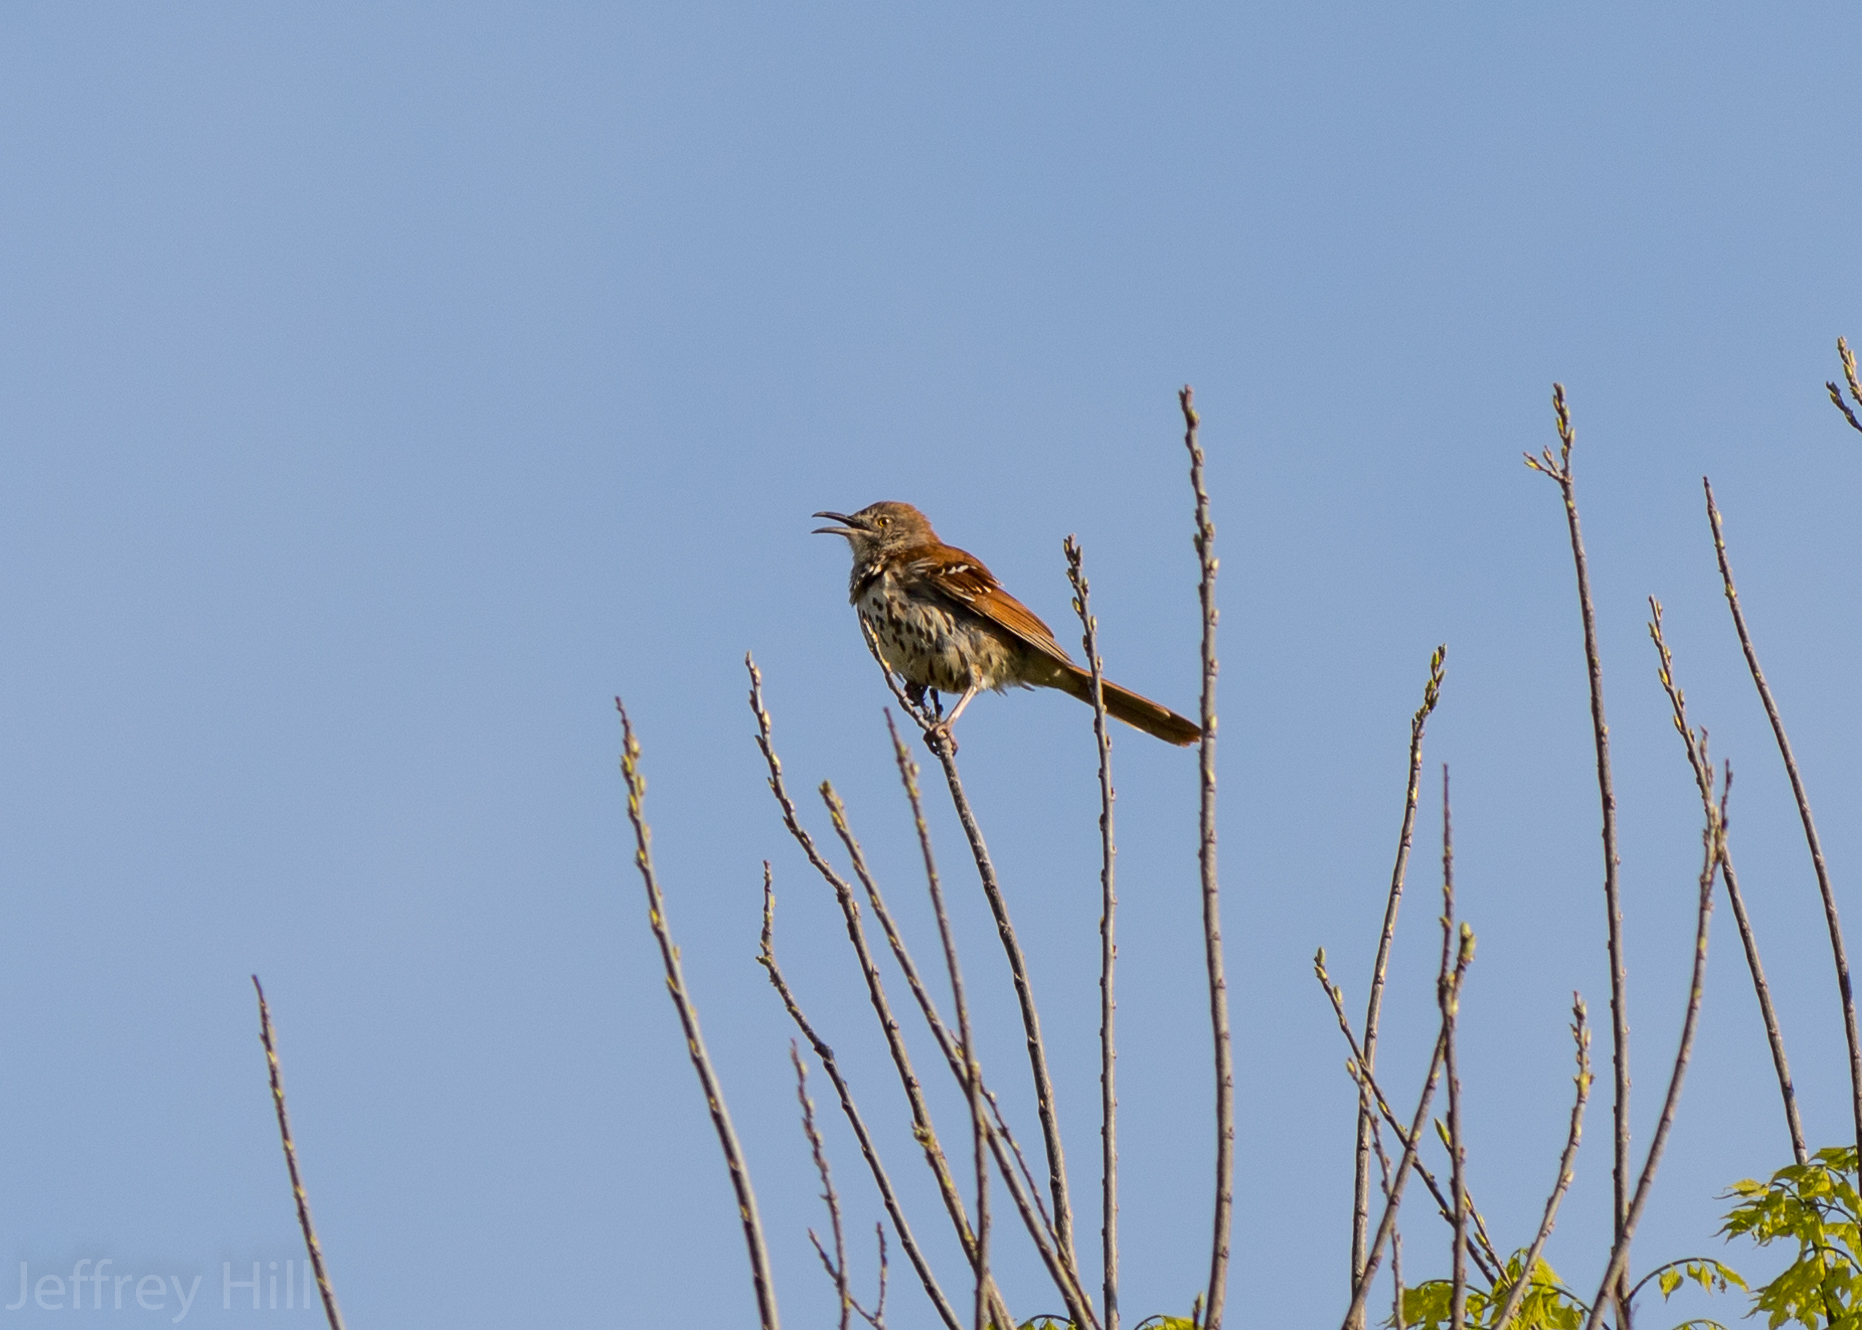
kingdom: Animalia
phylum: Chordata
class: Aves
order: Passeriformes
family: Mimidae
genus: Toxostoma
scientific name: Toxostoma rufum
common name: Brown thrasher
